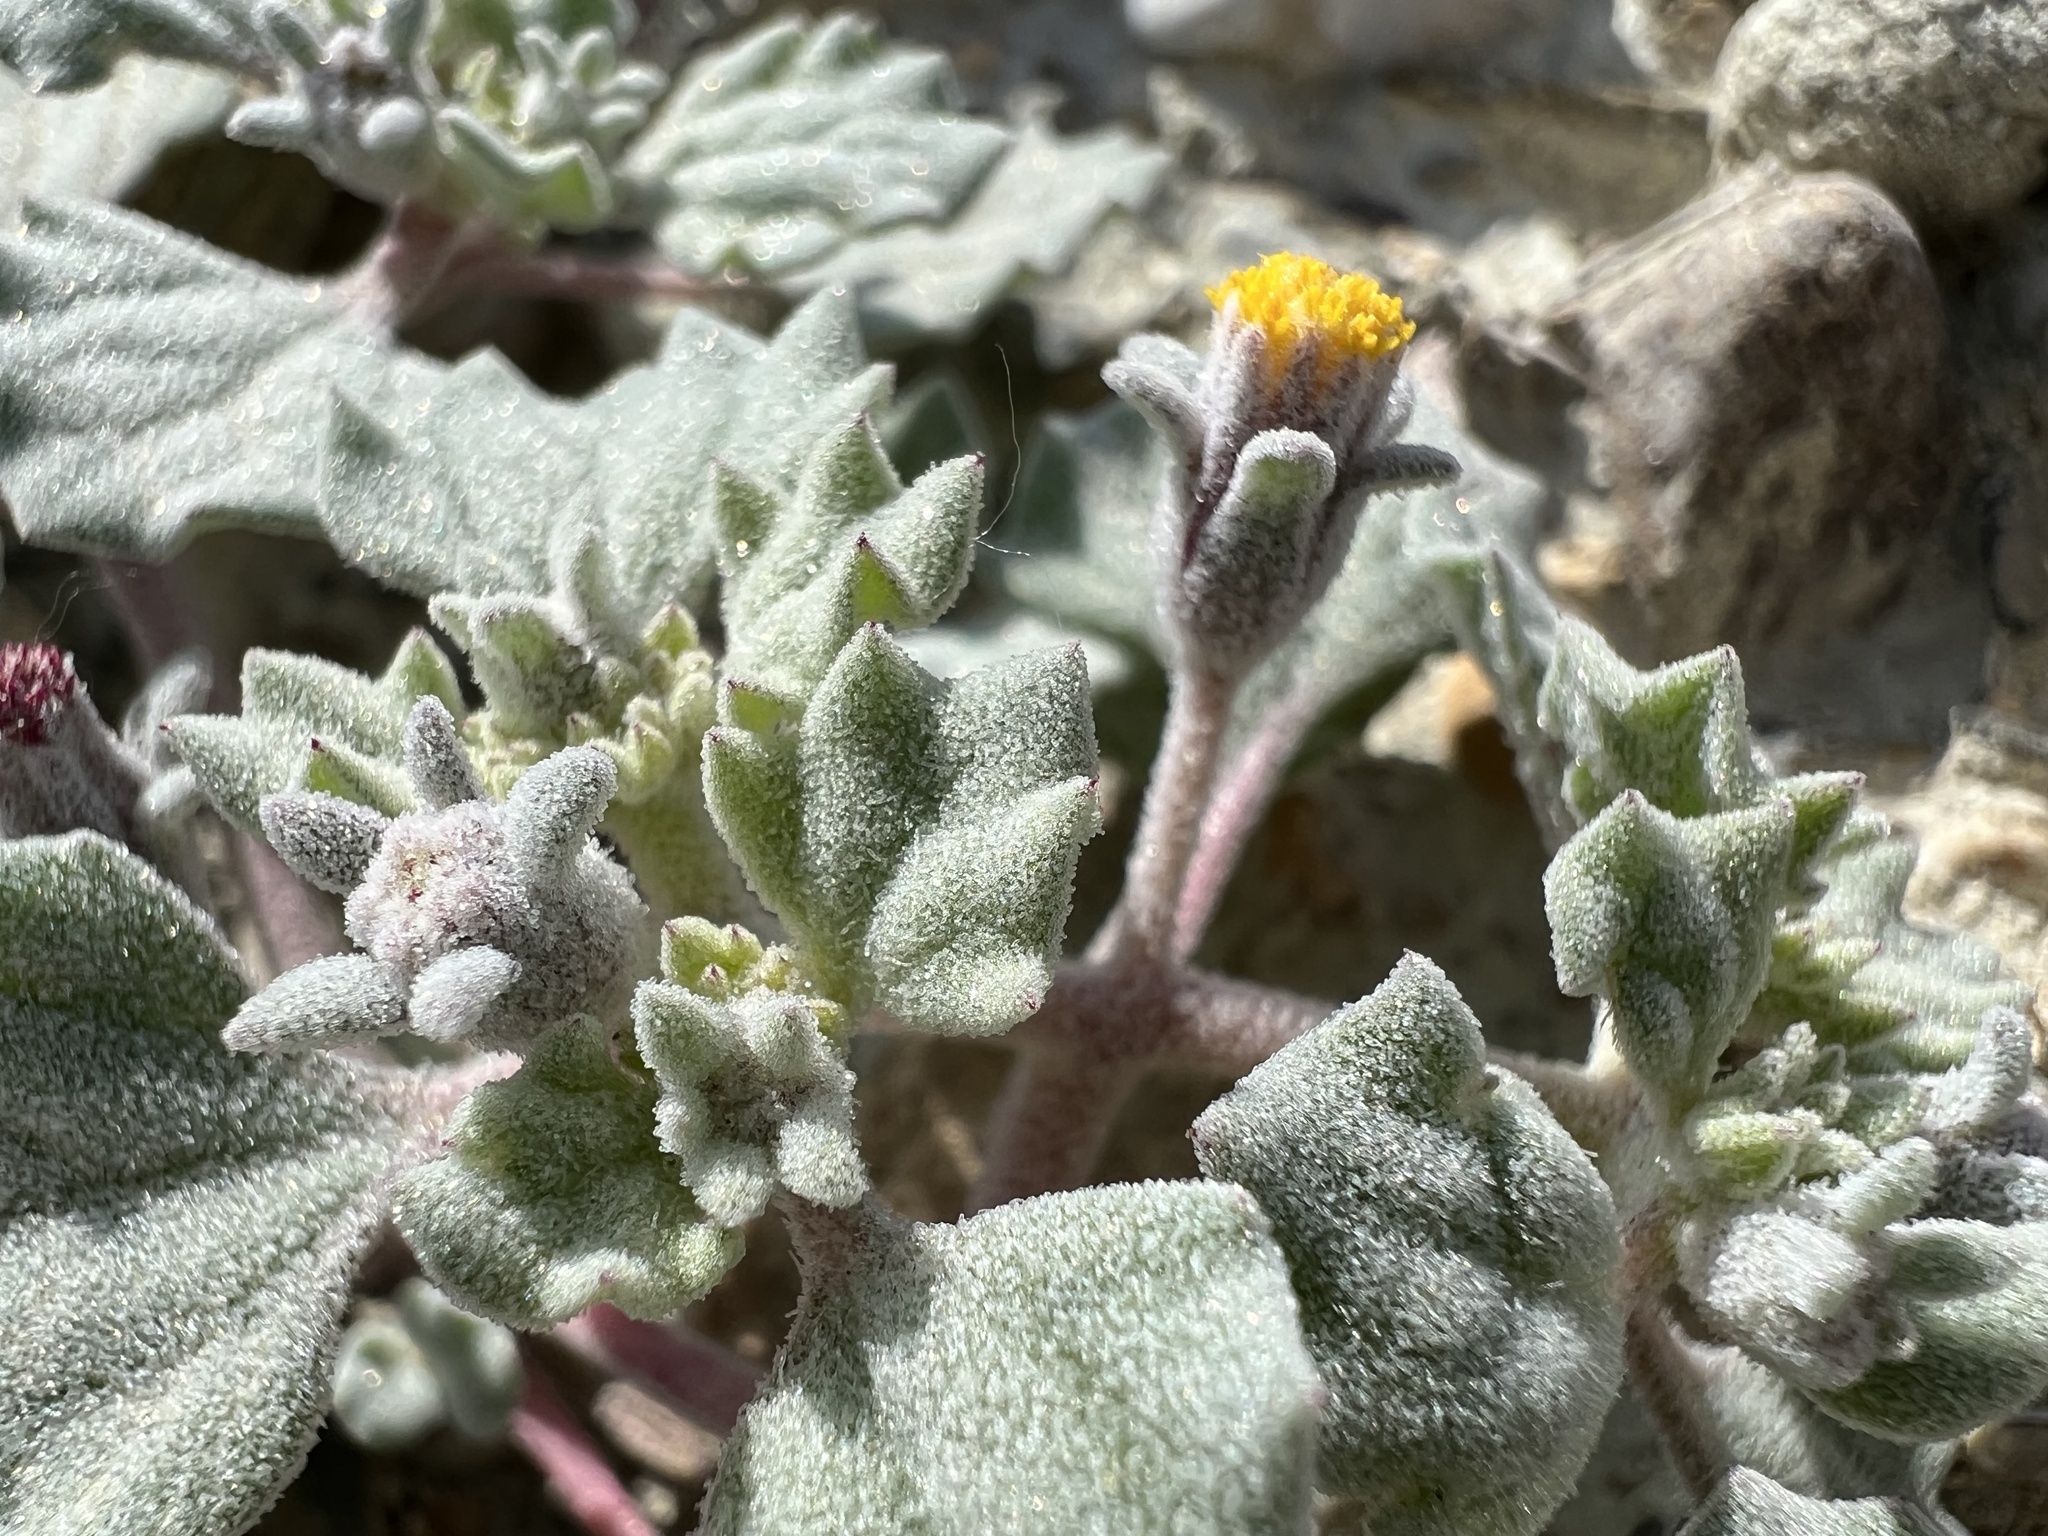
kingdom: Plantae
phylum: Tracheophyta
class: Magnoliopsida
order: Asterales
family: Asteraceae
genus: Psathyrotes
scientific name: Psathyrotes annua
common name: Mealy rosettes
